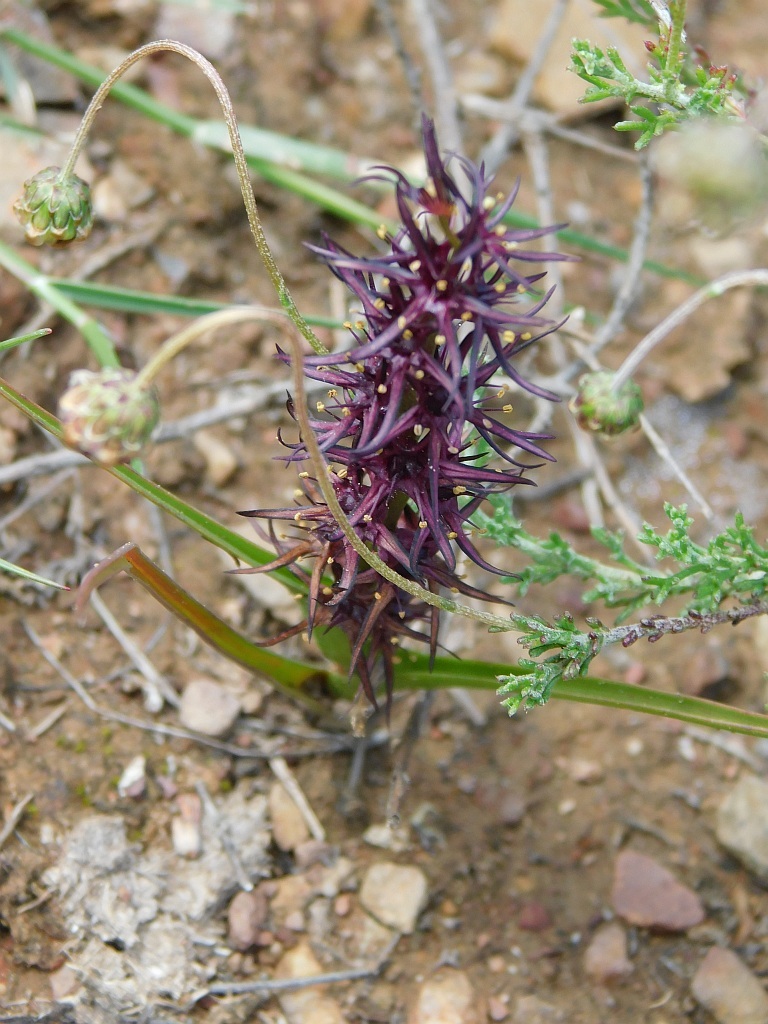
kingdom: Plantae
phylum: Tracheophyta
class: Liliopsida
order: Liliales
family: Colchicaceae
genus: Wurmbea
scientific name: Wurmbea marginata
